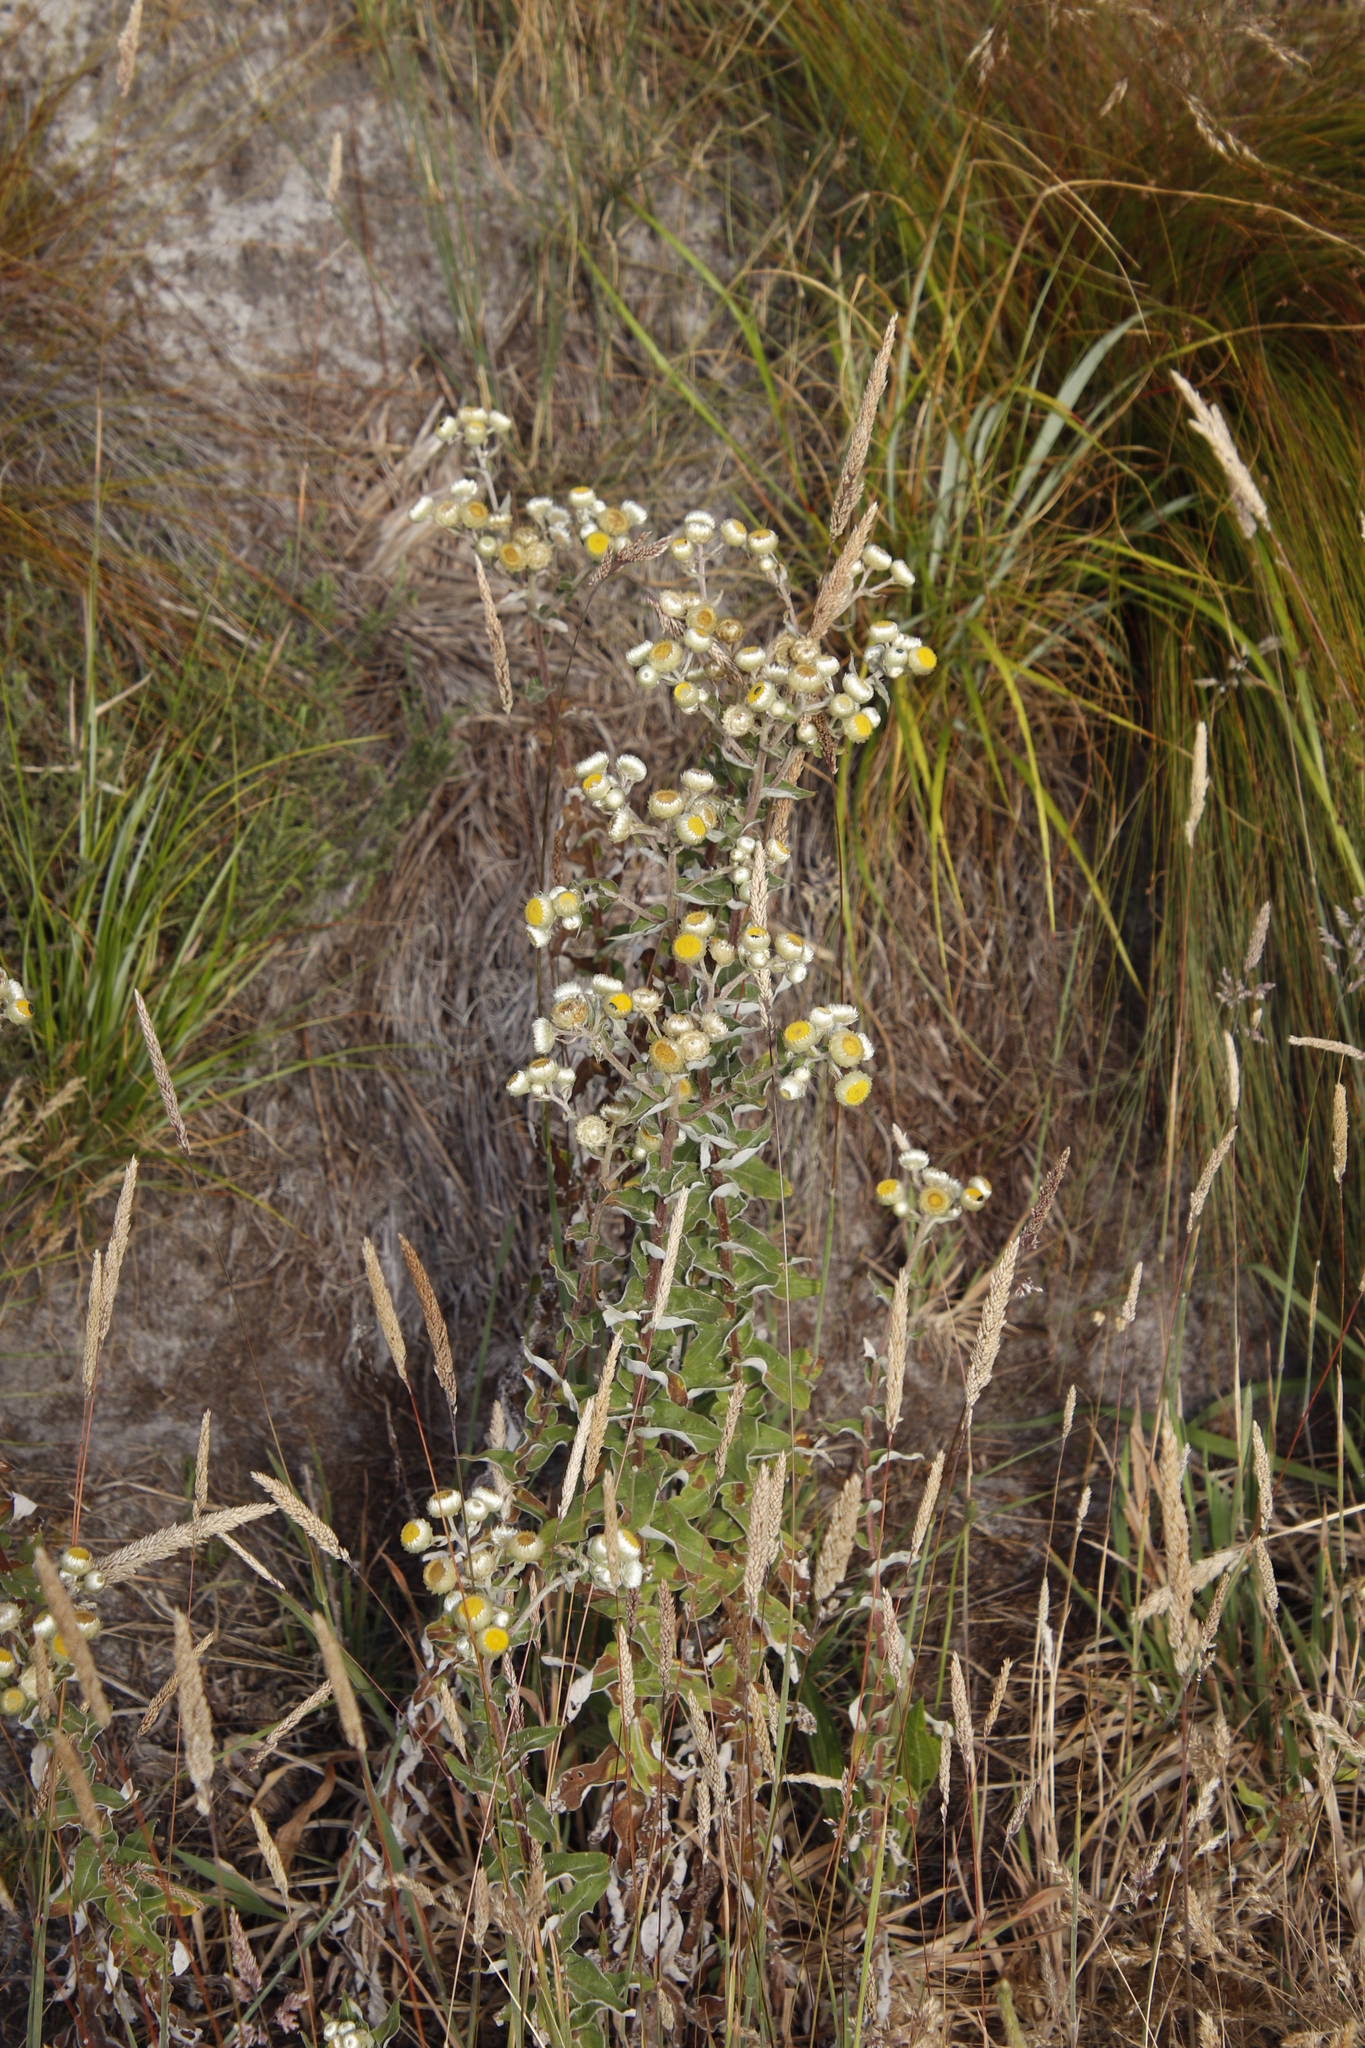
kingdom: Plantae
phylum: Tracheophyta
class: Magnoliopsida
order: Asterales
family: Asteraceae
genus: Helichrysum
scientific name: Helichrysum foetidum
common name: Stinking everlasting
